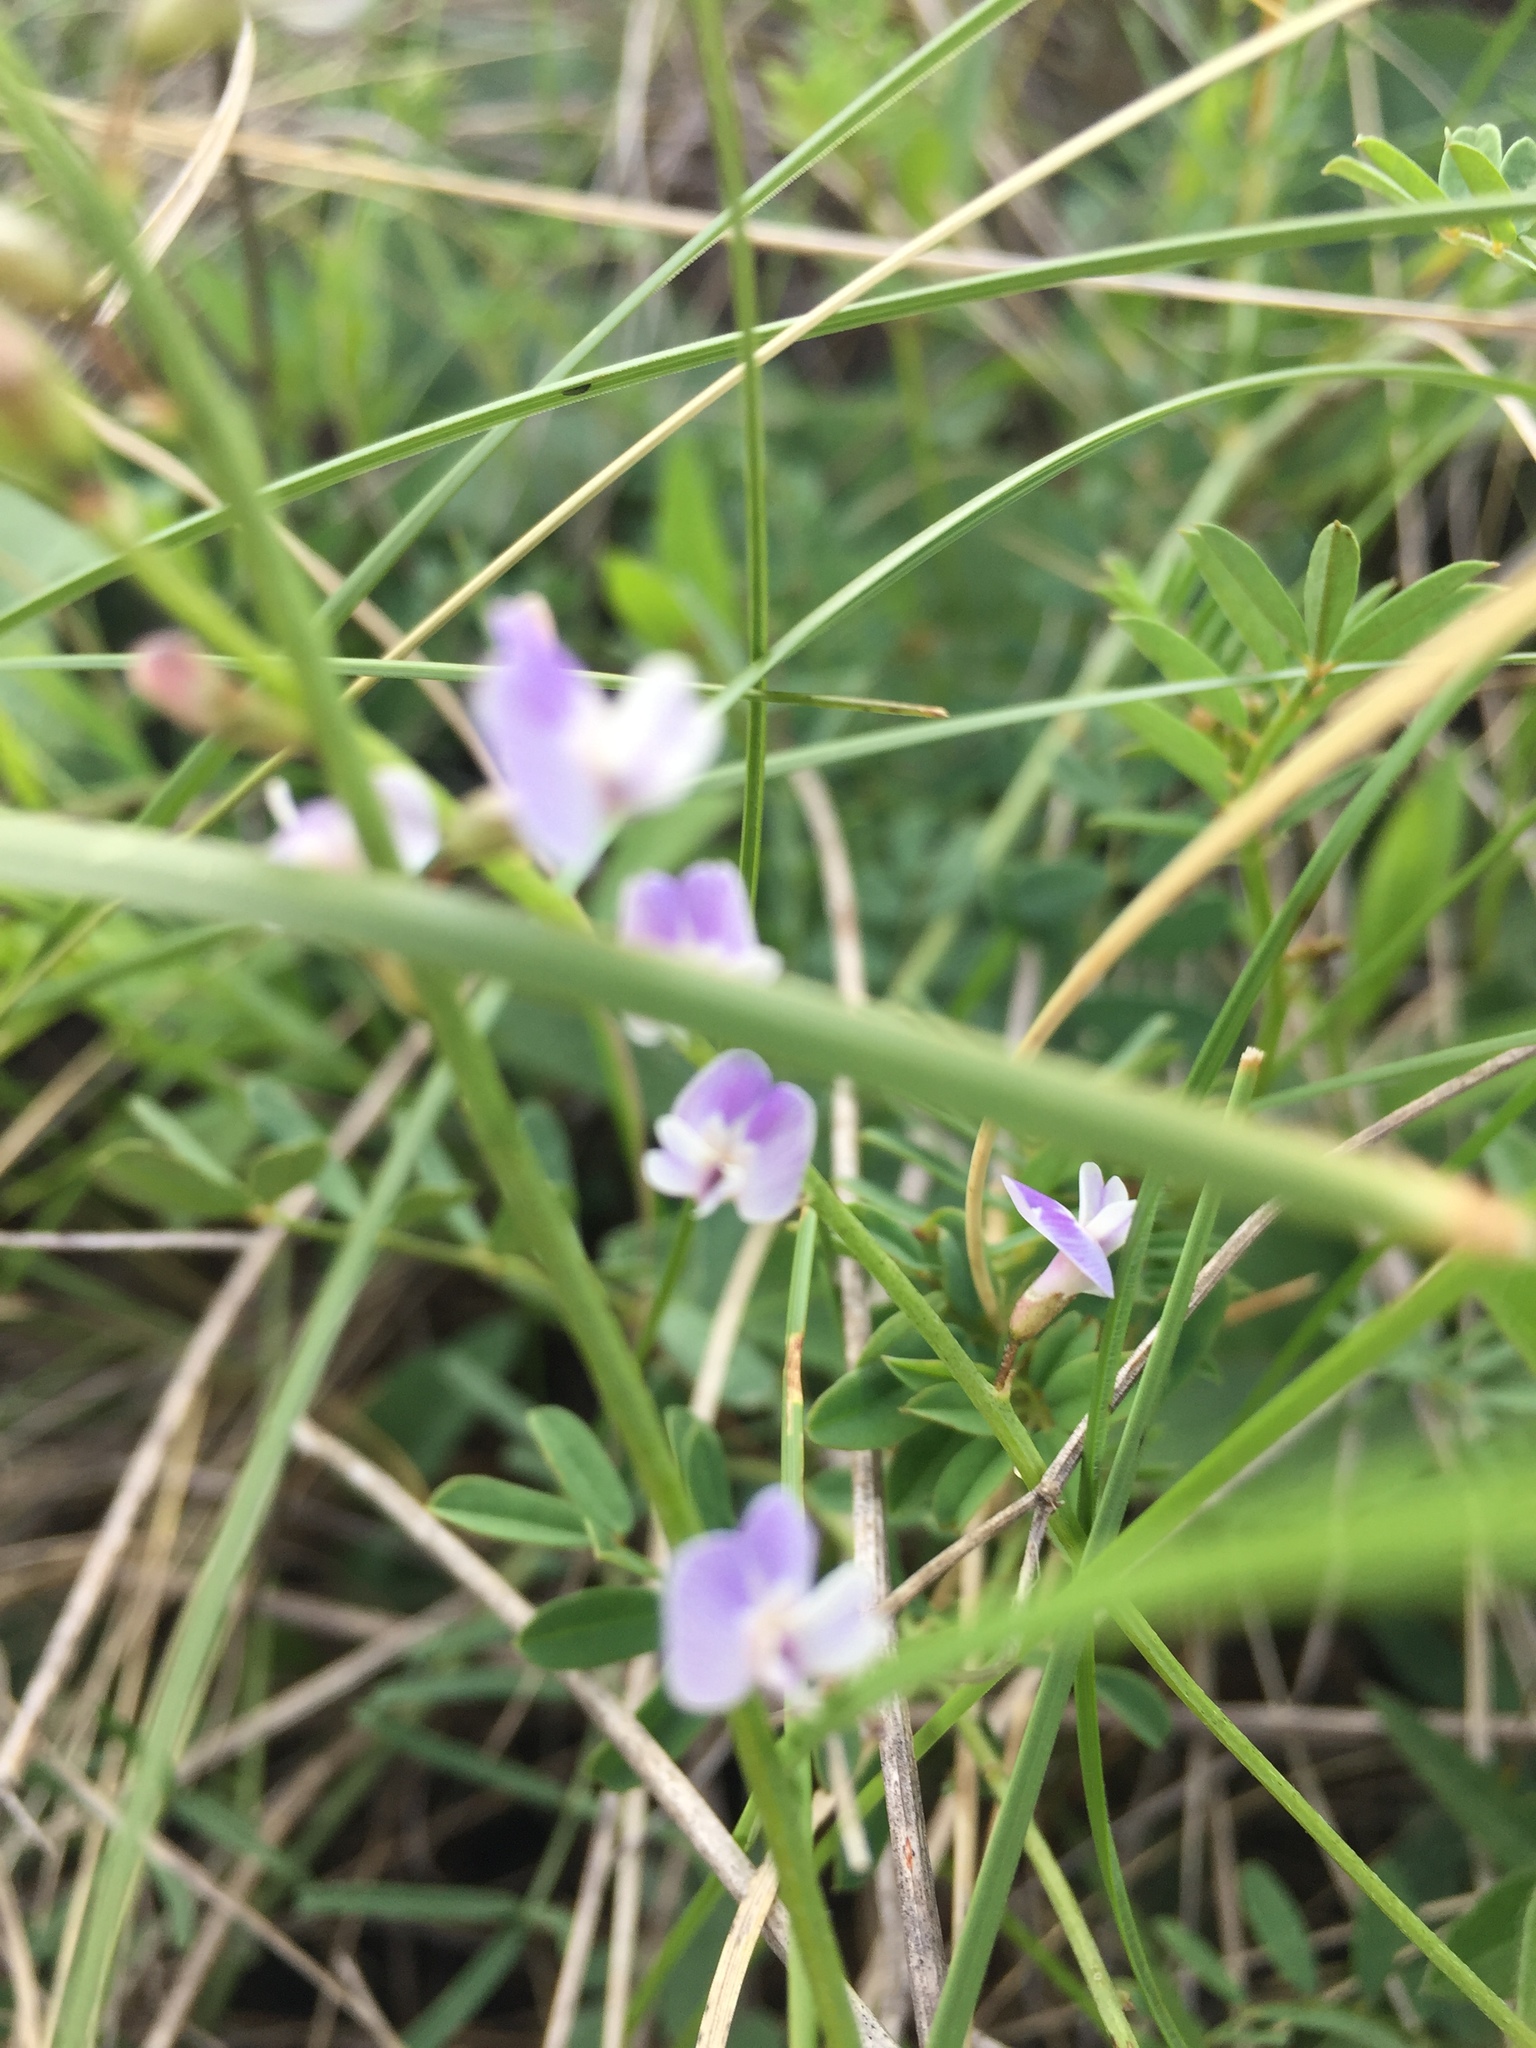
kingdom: Plantae
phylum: Tracheophyta
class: Magnoliopsida
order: Fabales
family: Fabaceae
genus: Astragalus
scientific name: Astragalus austriacus
